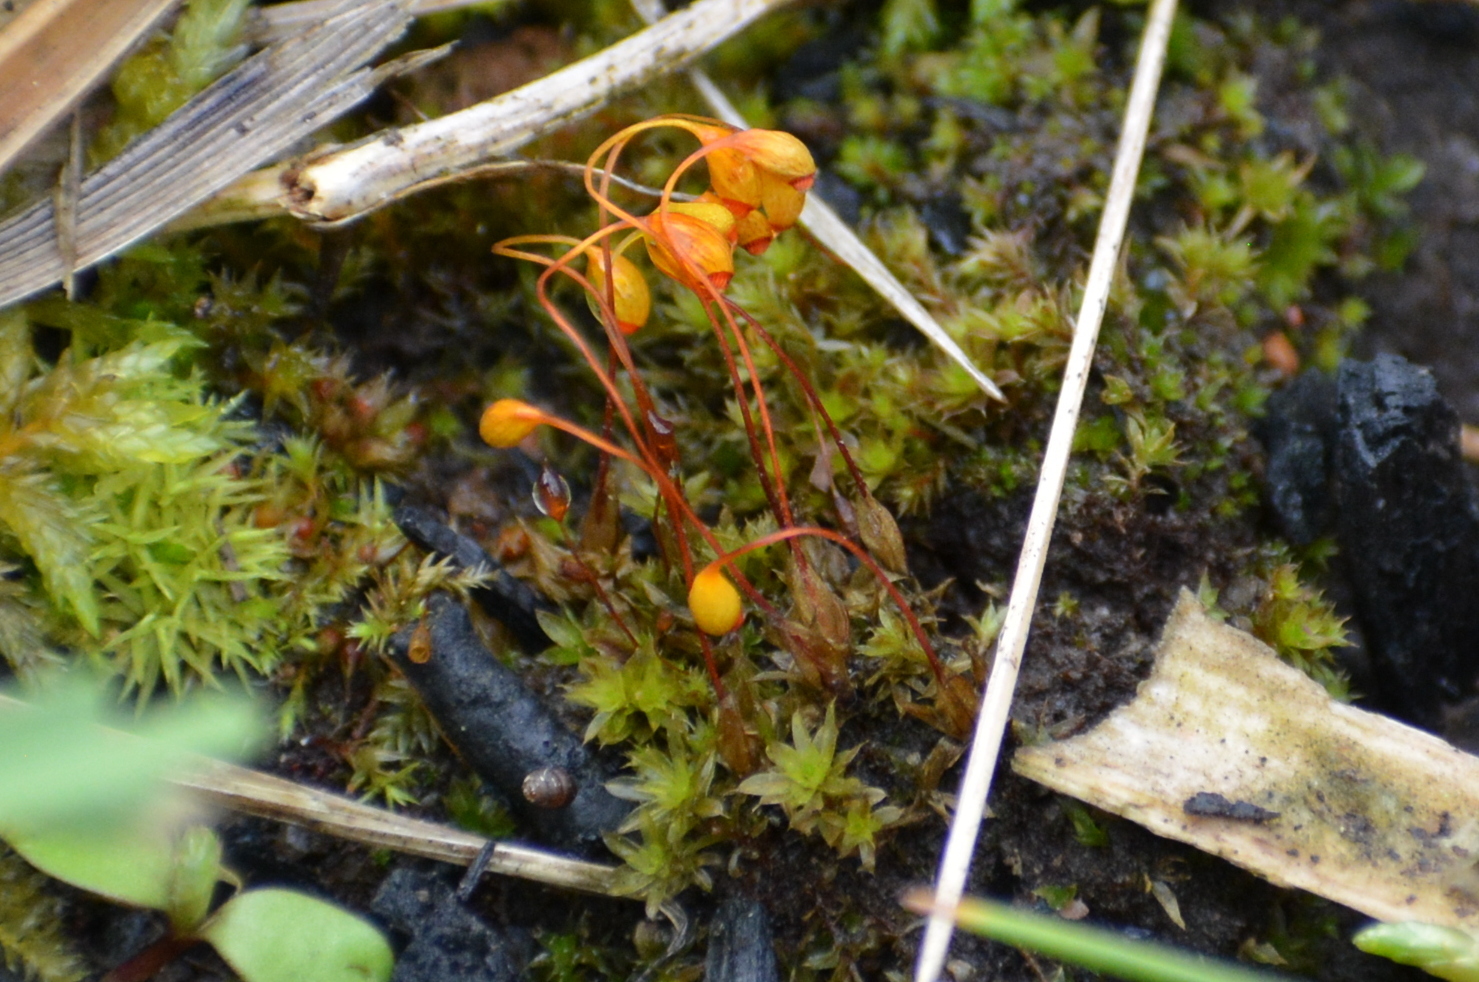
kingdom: Plantae
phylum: Bryophyta
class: Bryopsida
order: Funariales
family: Funariaceae
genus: Funaria
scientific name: Funaria hygrometrica
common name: Common cord moss
